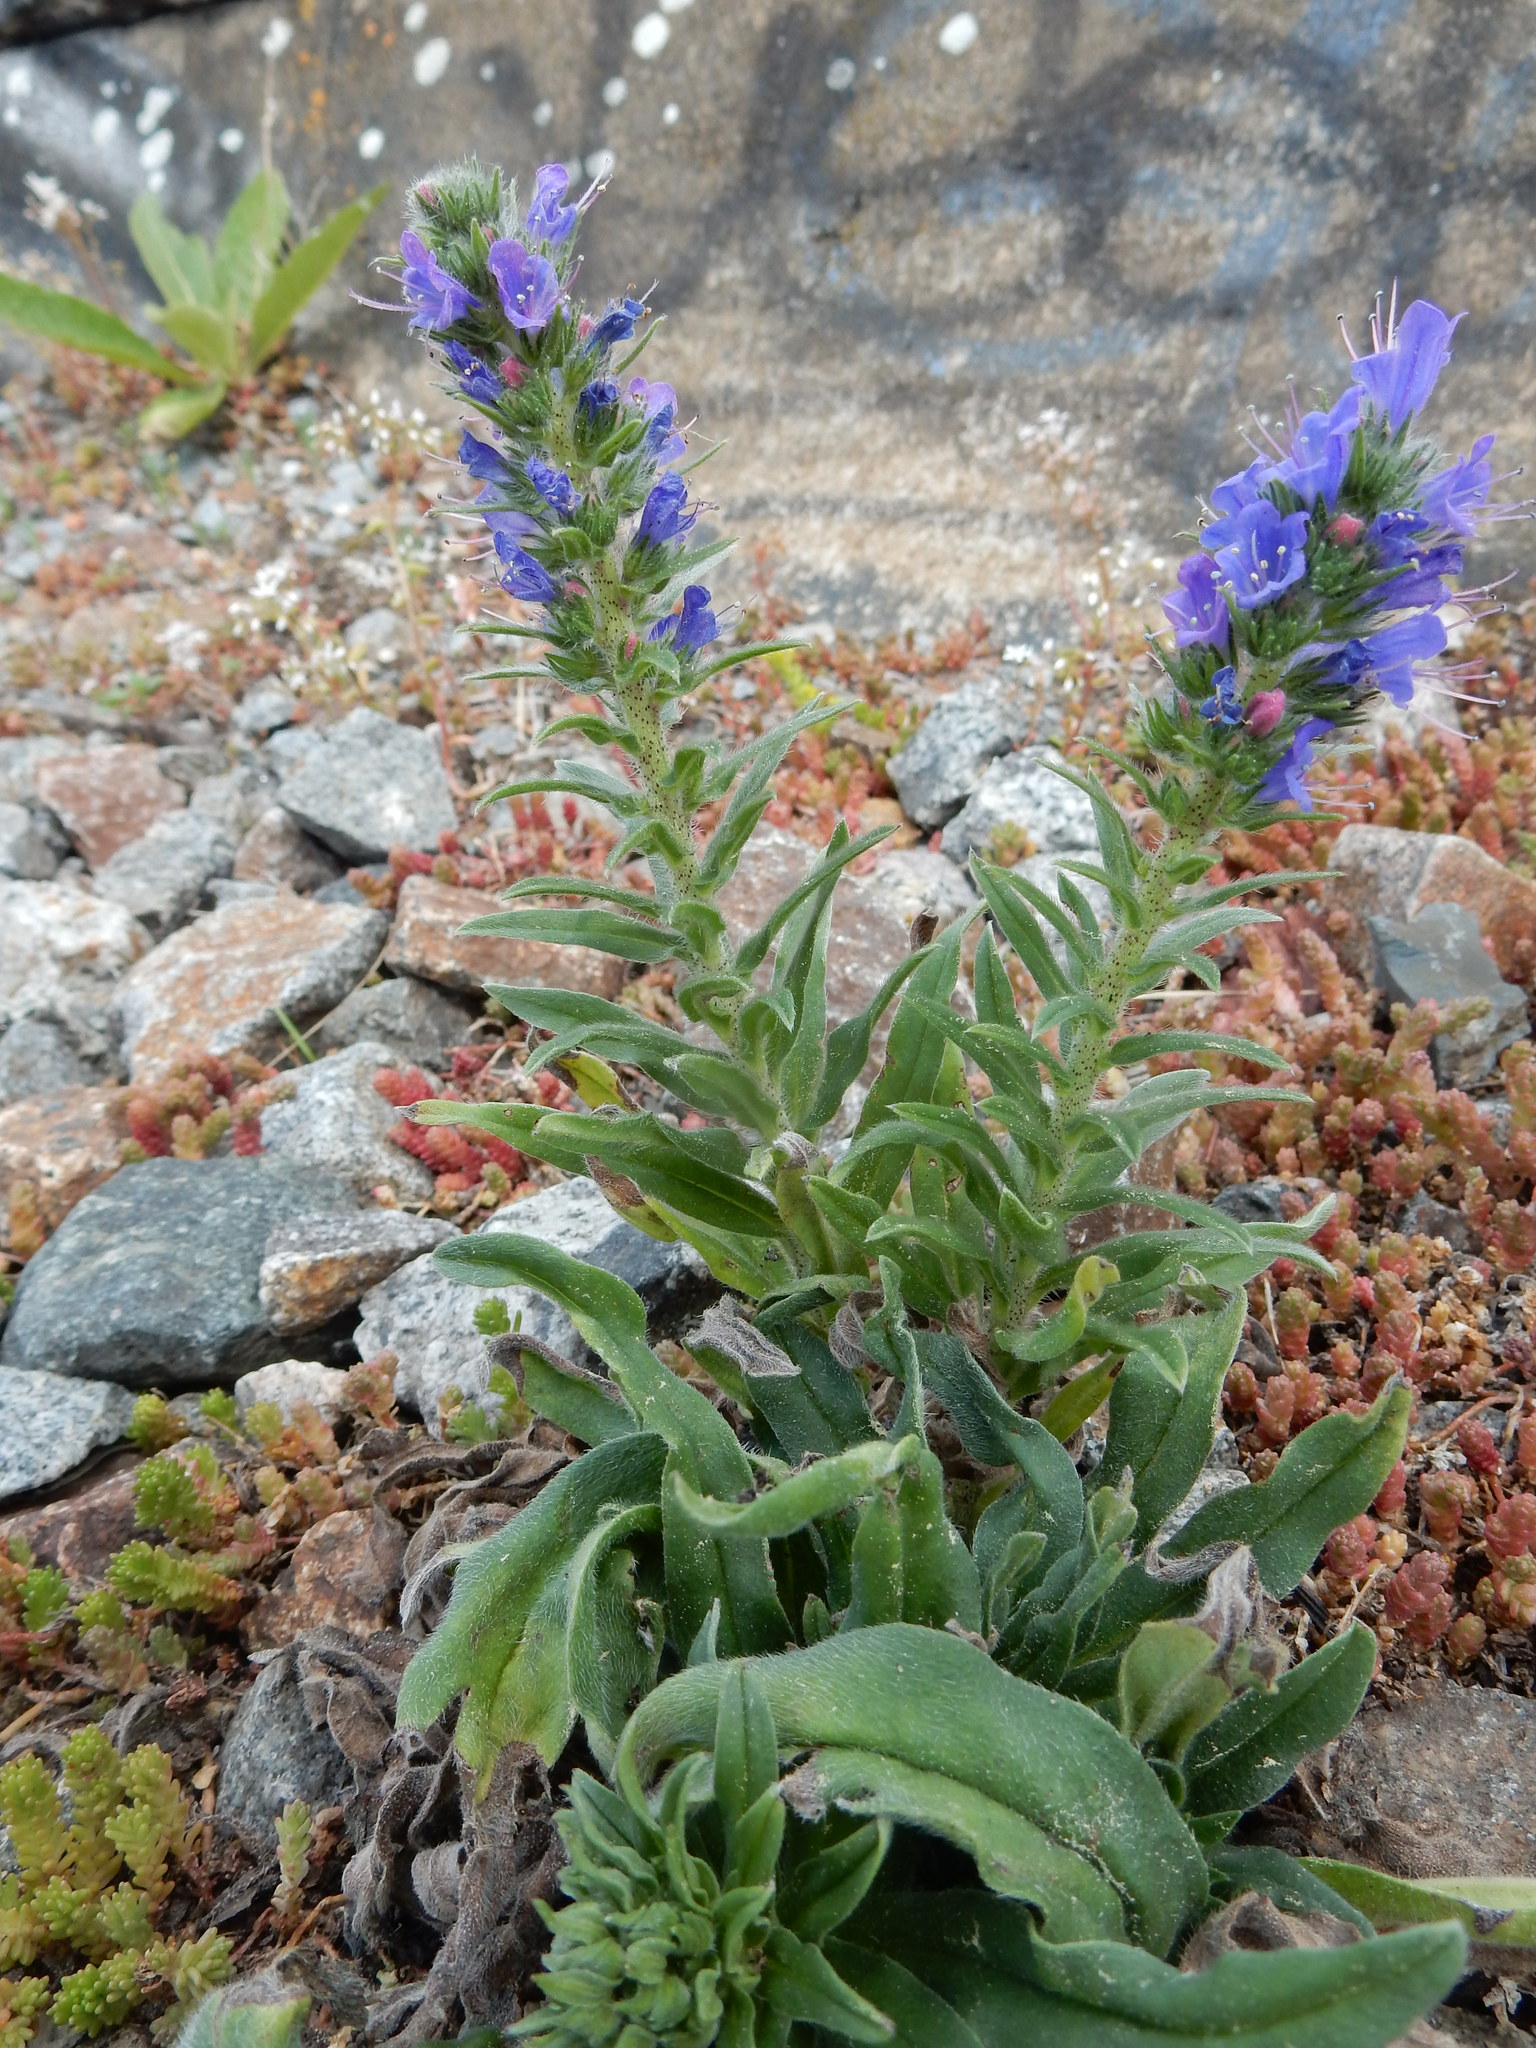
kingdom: Plantae
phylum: Tracheophyta
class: Magnoliopsida
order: Boraginales
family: Boraginaceae
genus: Echium
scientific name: Echium vulgare
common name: Common viper's bugloss
